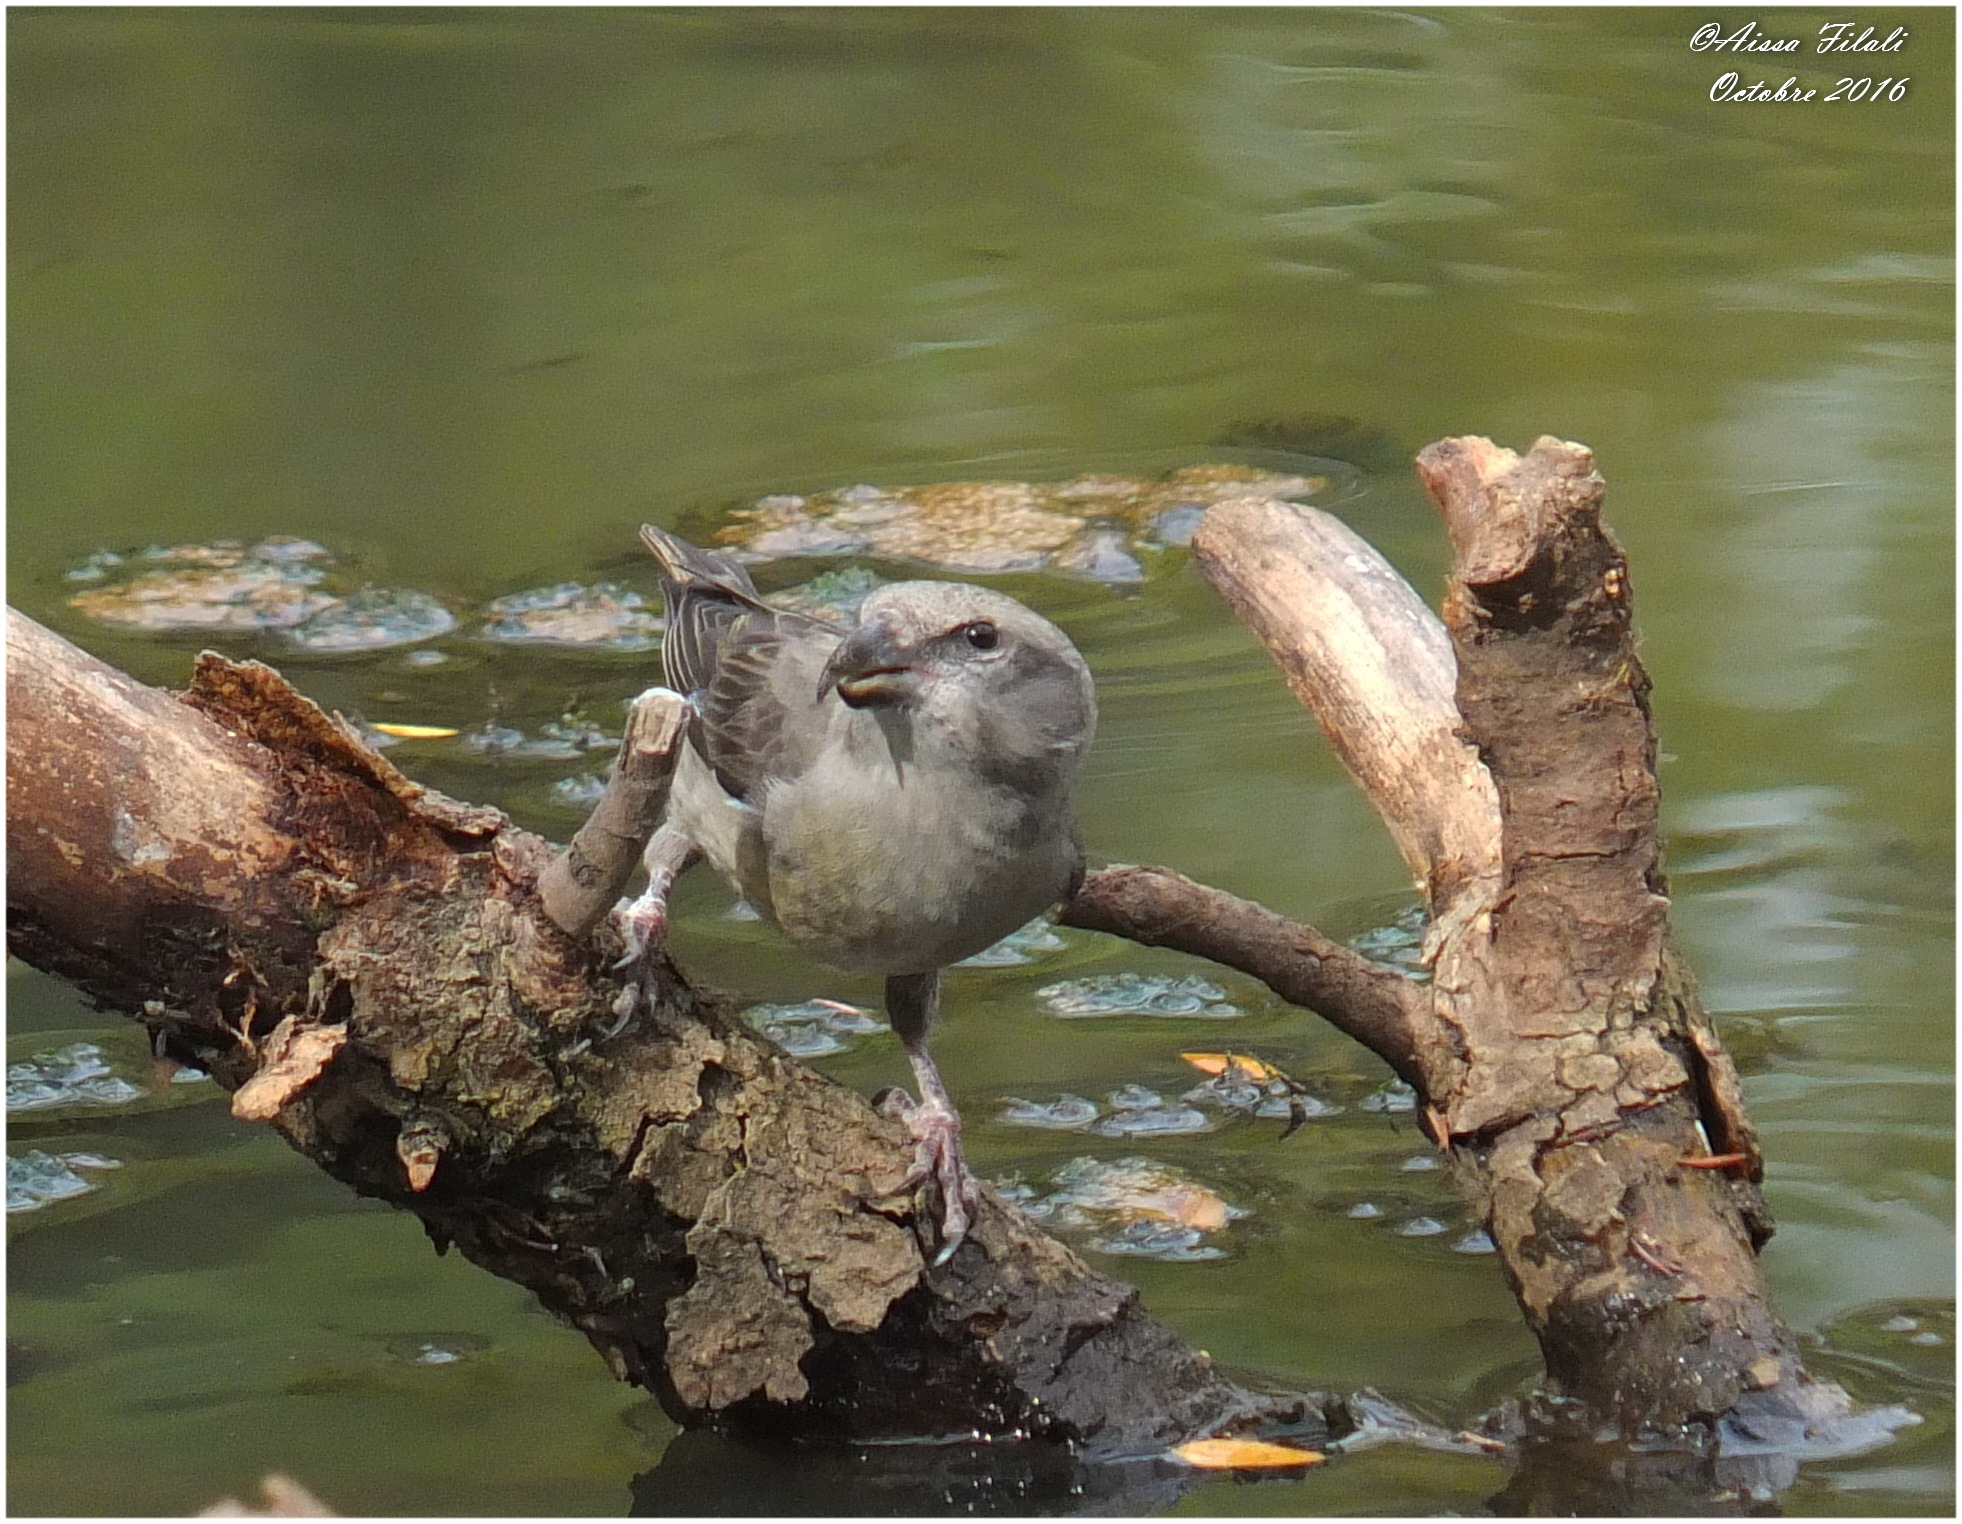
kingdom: Animalia
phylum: Chordata
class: Aves
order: Passeriformes
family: Fringillidae
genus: Loxia
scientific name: Loxia curvirostra
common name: Red crossbill
